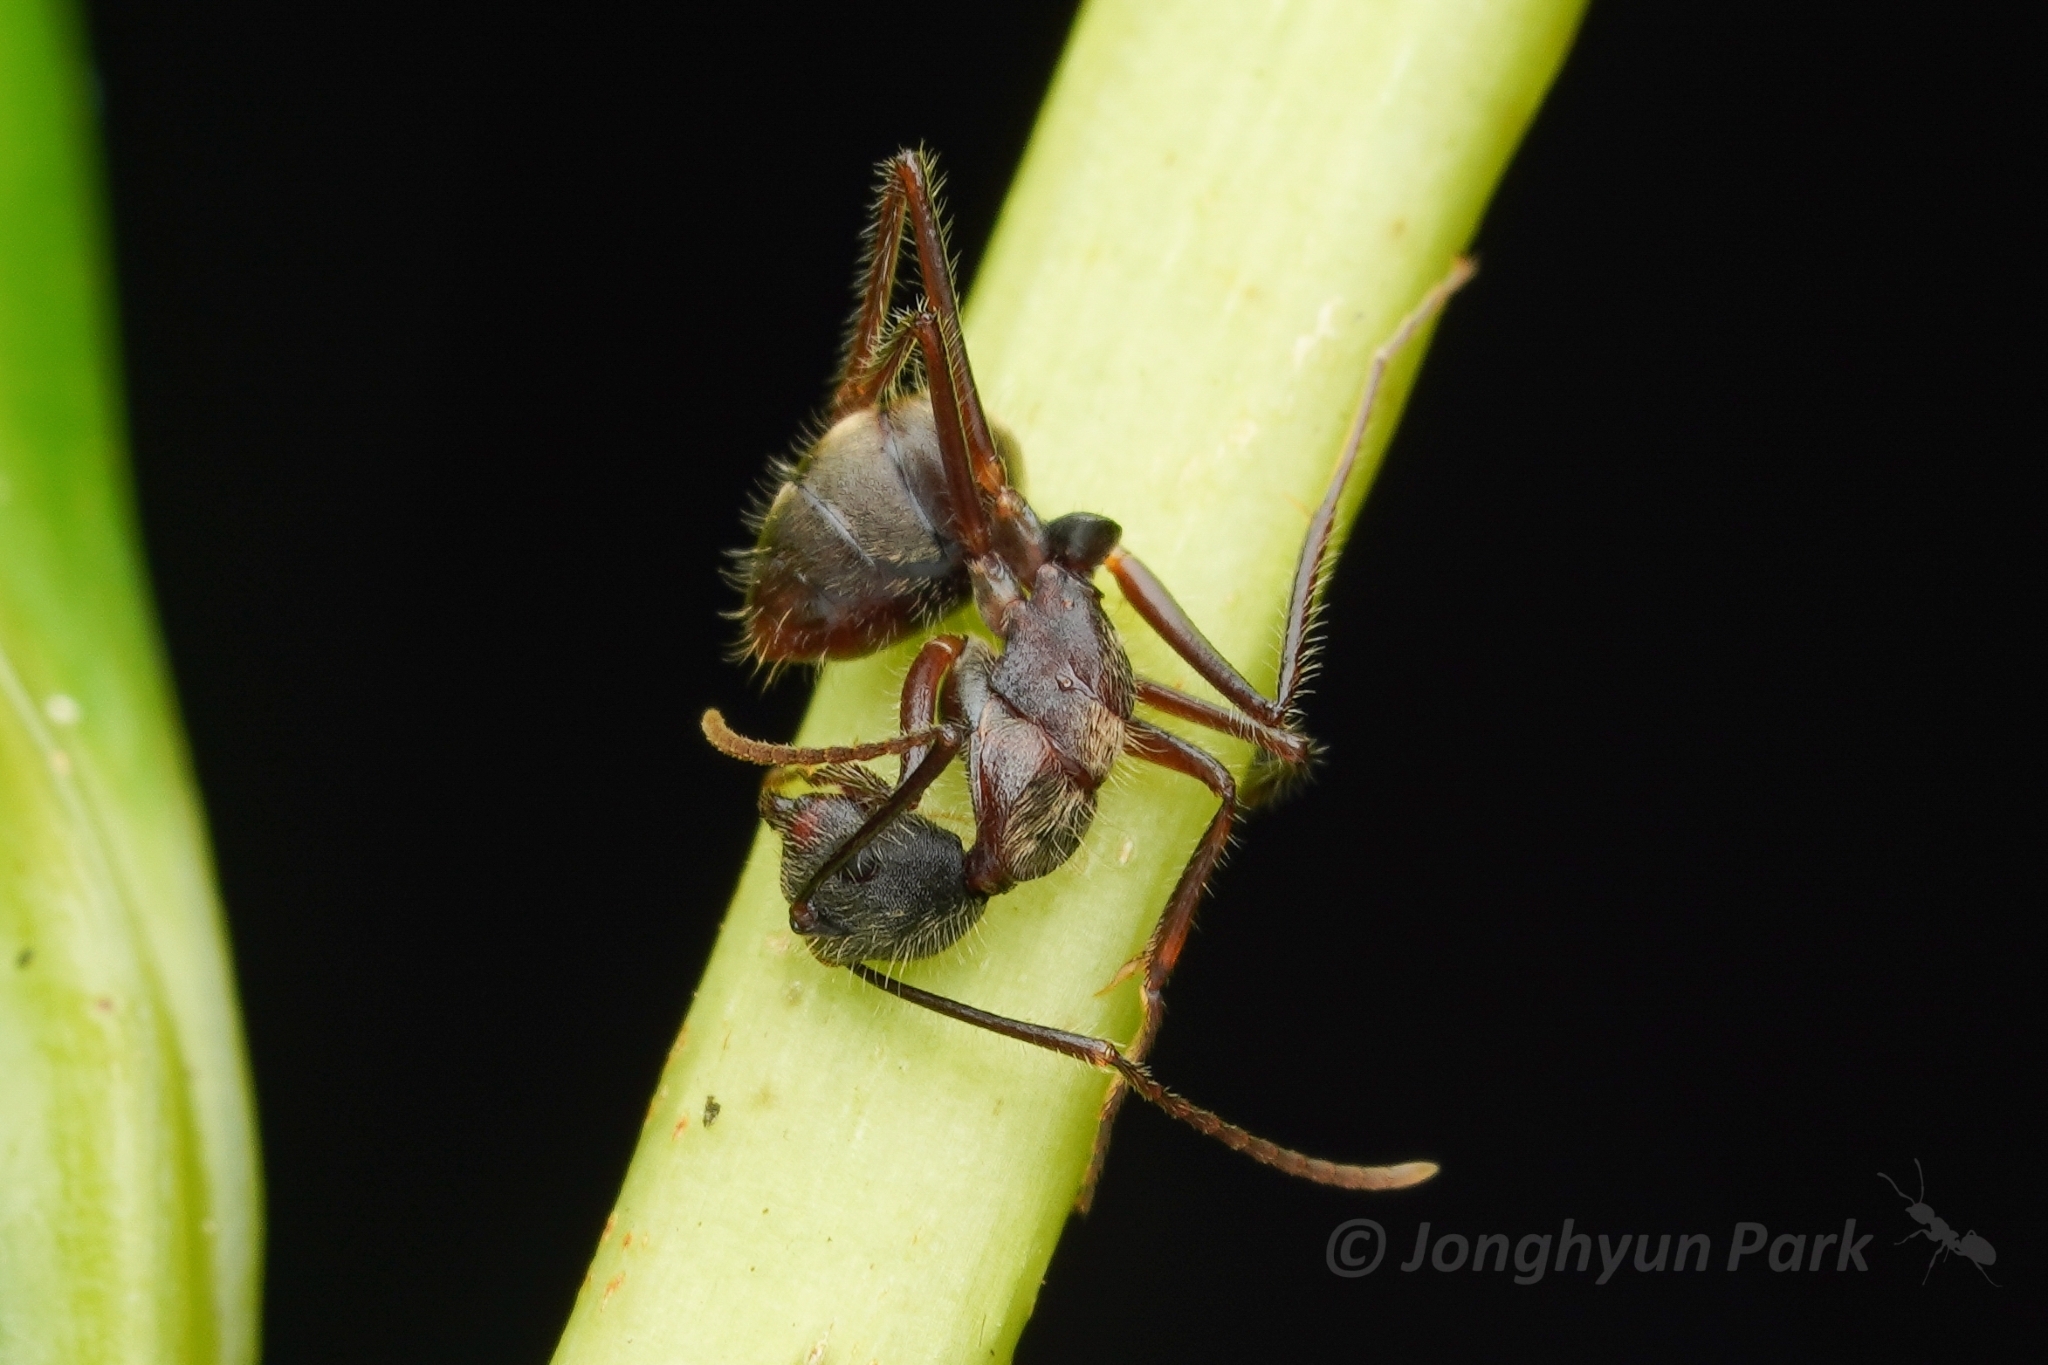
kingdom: Animalia
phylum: Arthropoda
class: Insecta
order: Hymenoptera
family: Formicidae
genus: Dendromyrmex
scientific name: Dendromyrmex nidulans
